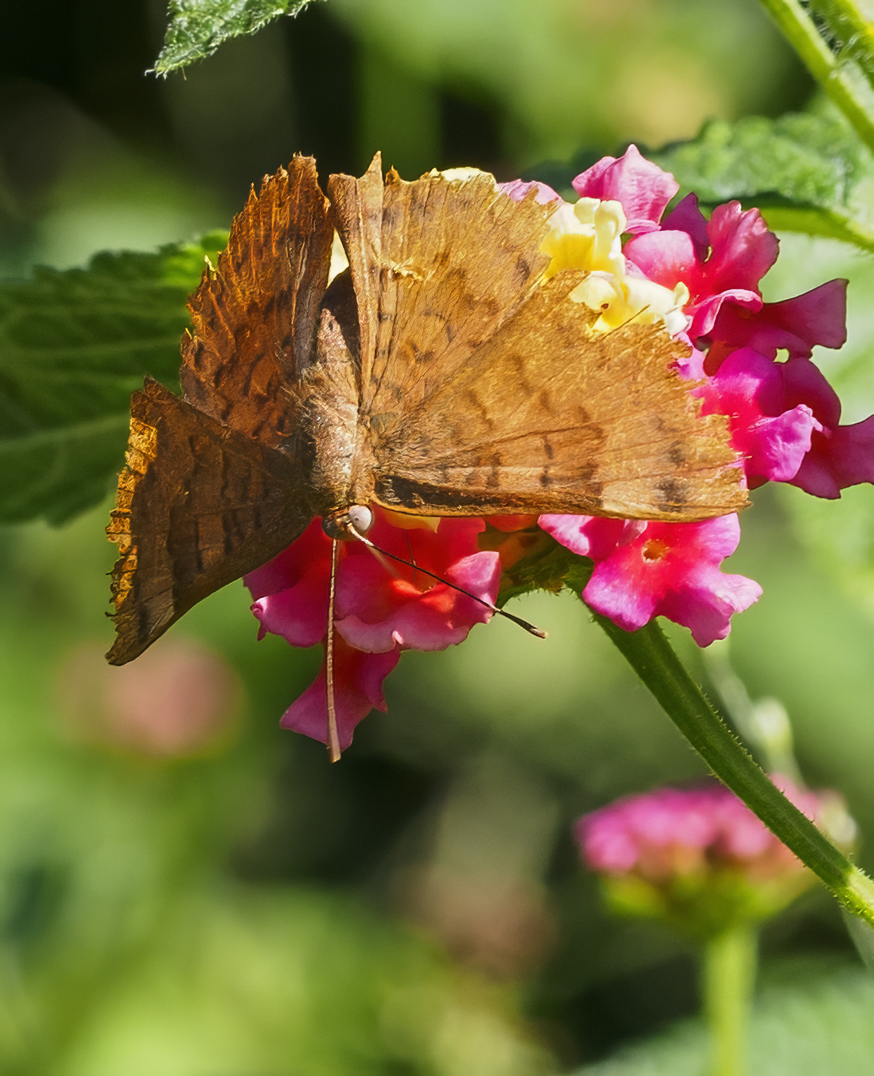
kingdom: Animalia
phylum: Arthropoda
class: Insecta
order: Lepidoptera
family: Lycaenidae
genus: Emesis
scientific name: Emesis russula
